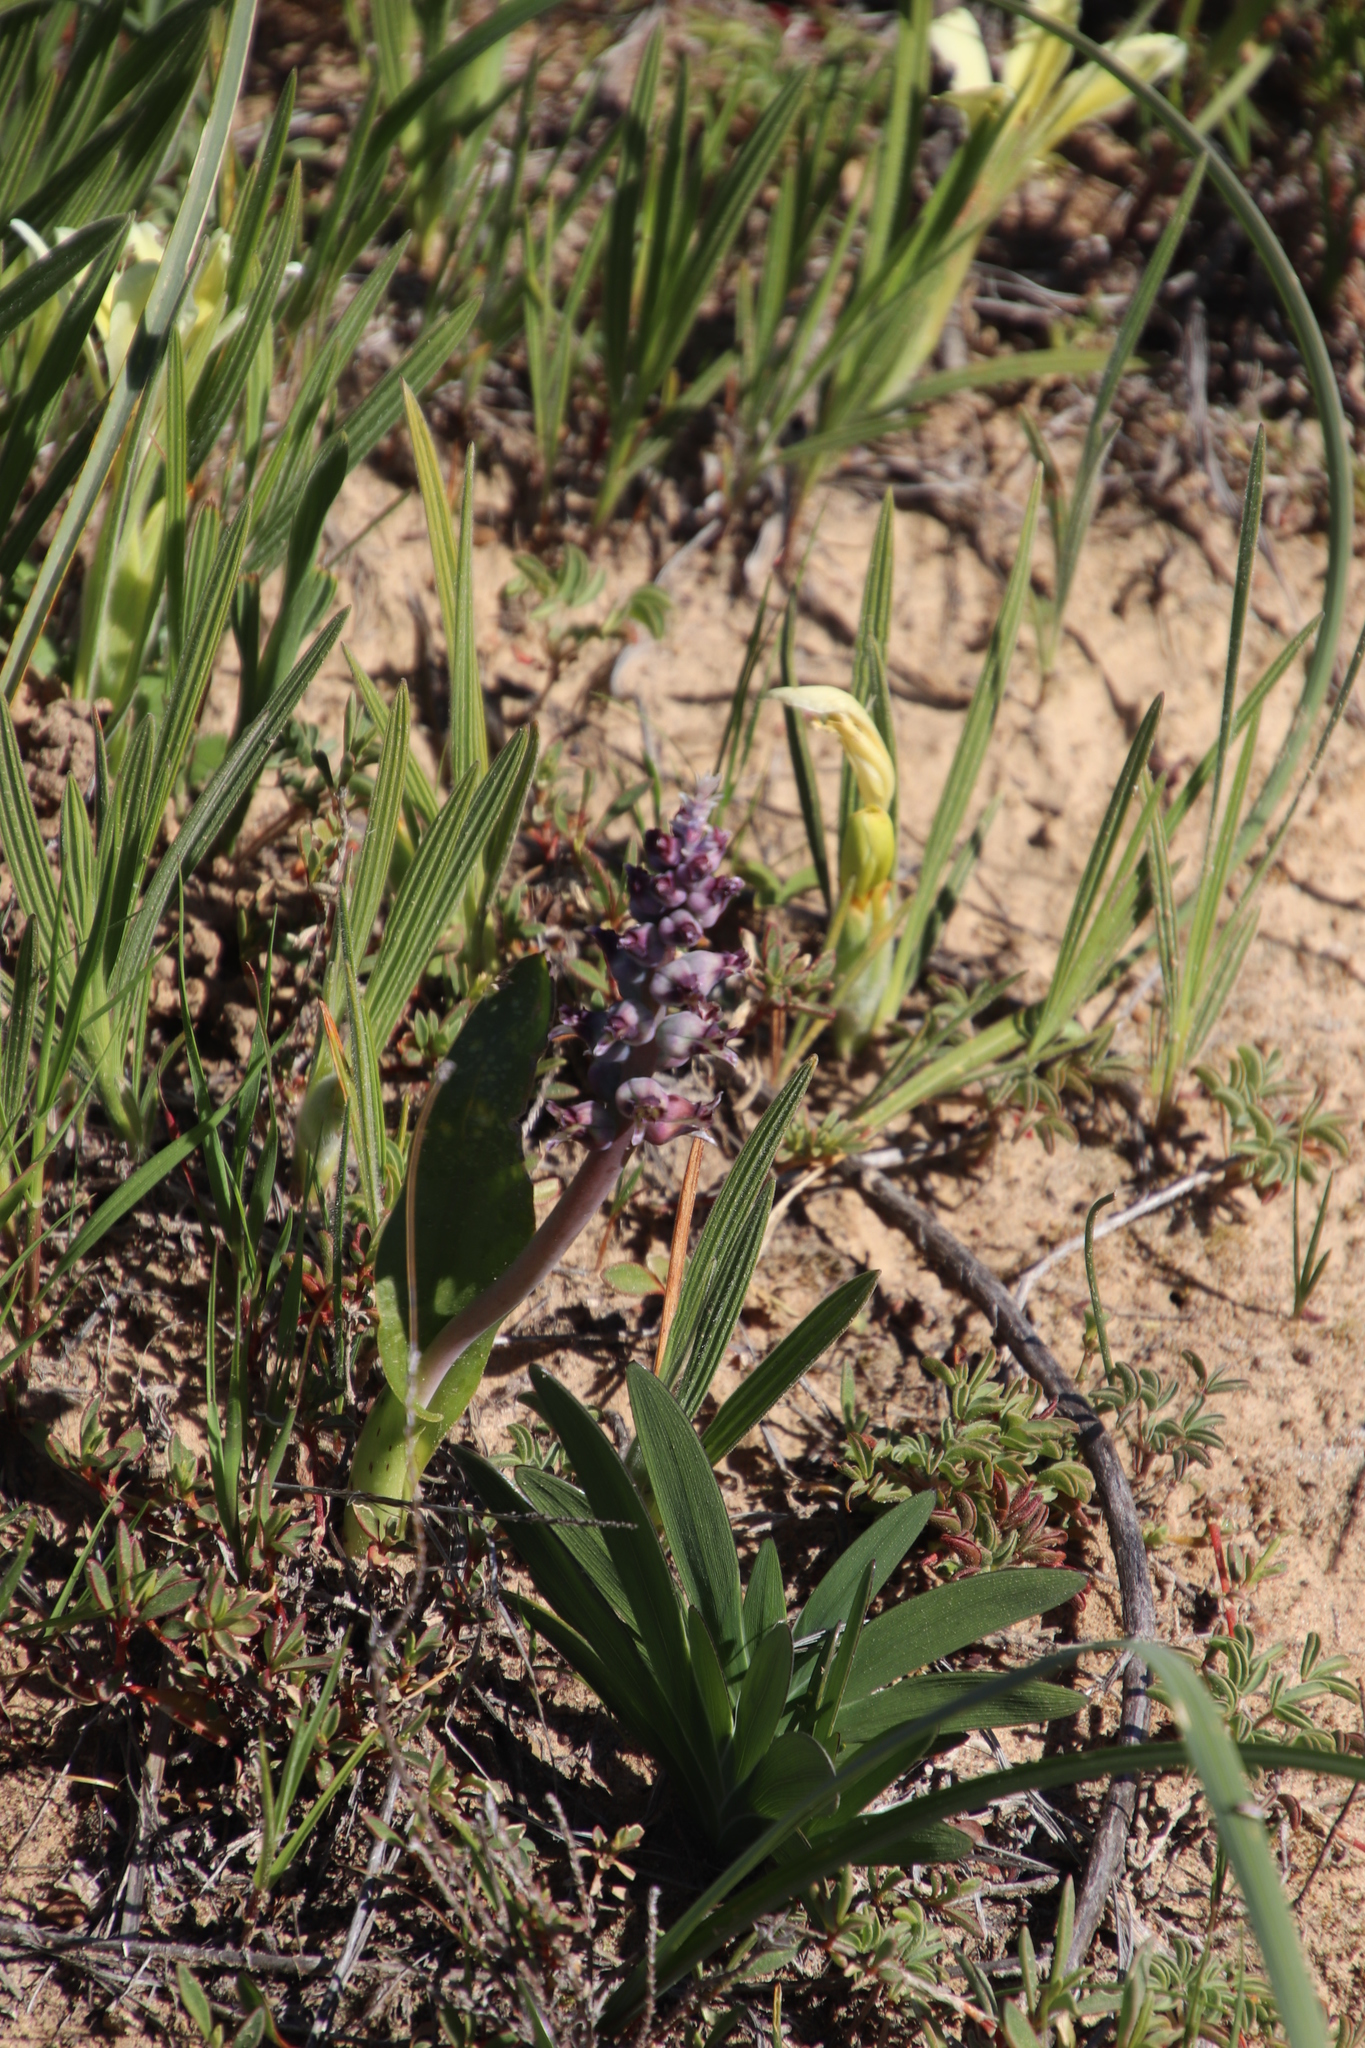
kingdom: Plantae
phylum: Tracheophyta
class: Liliopsida
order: Asparagales
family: Asparagaceae
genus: Lachenalia
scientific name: Lachenalia elegans
